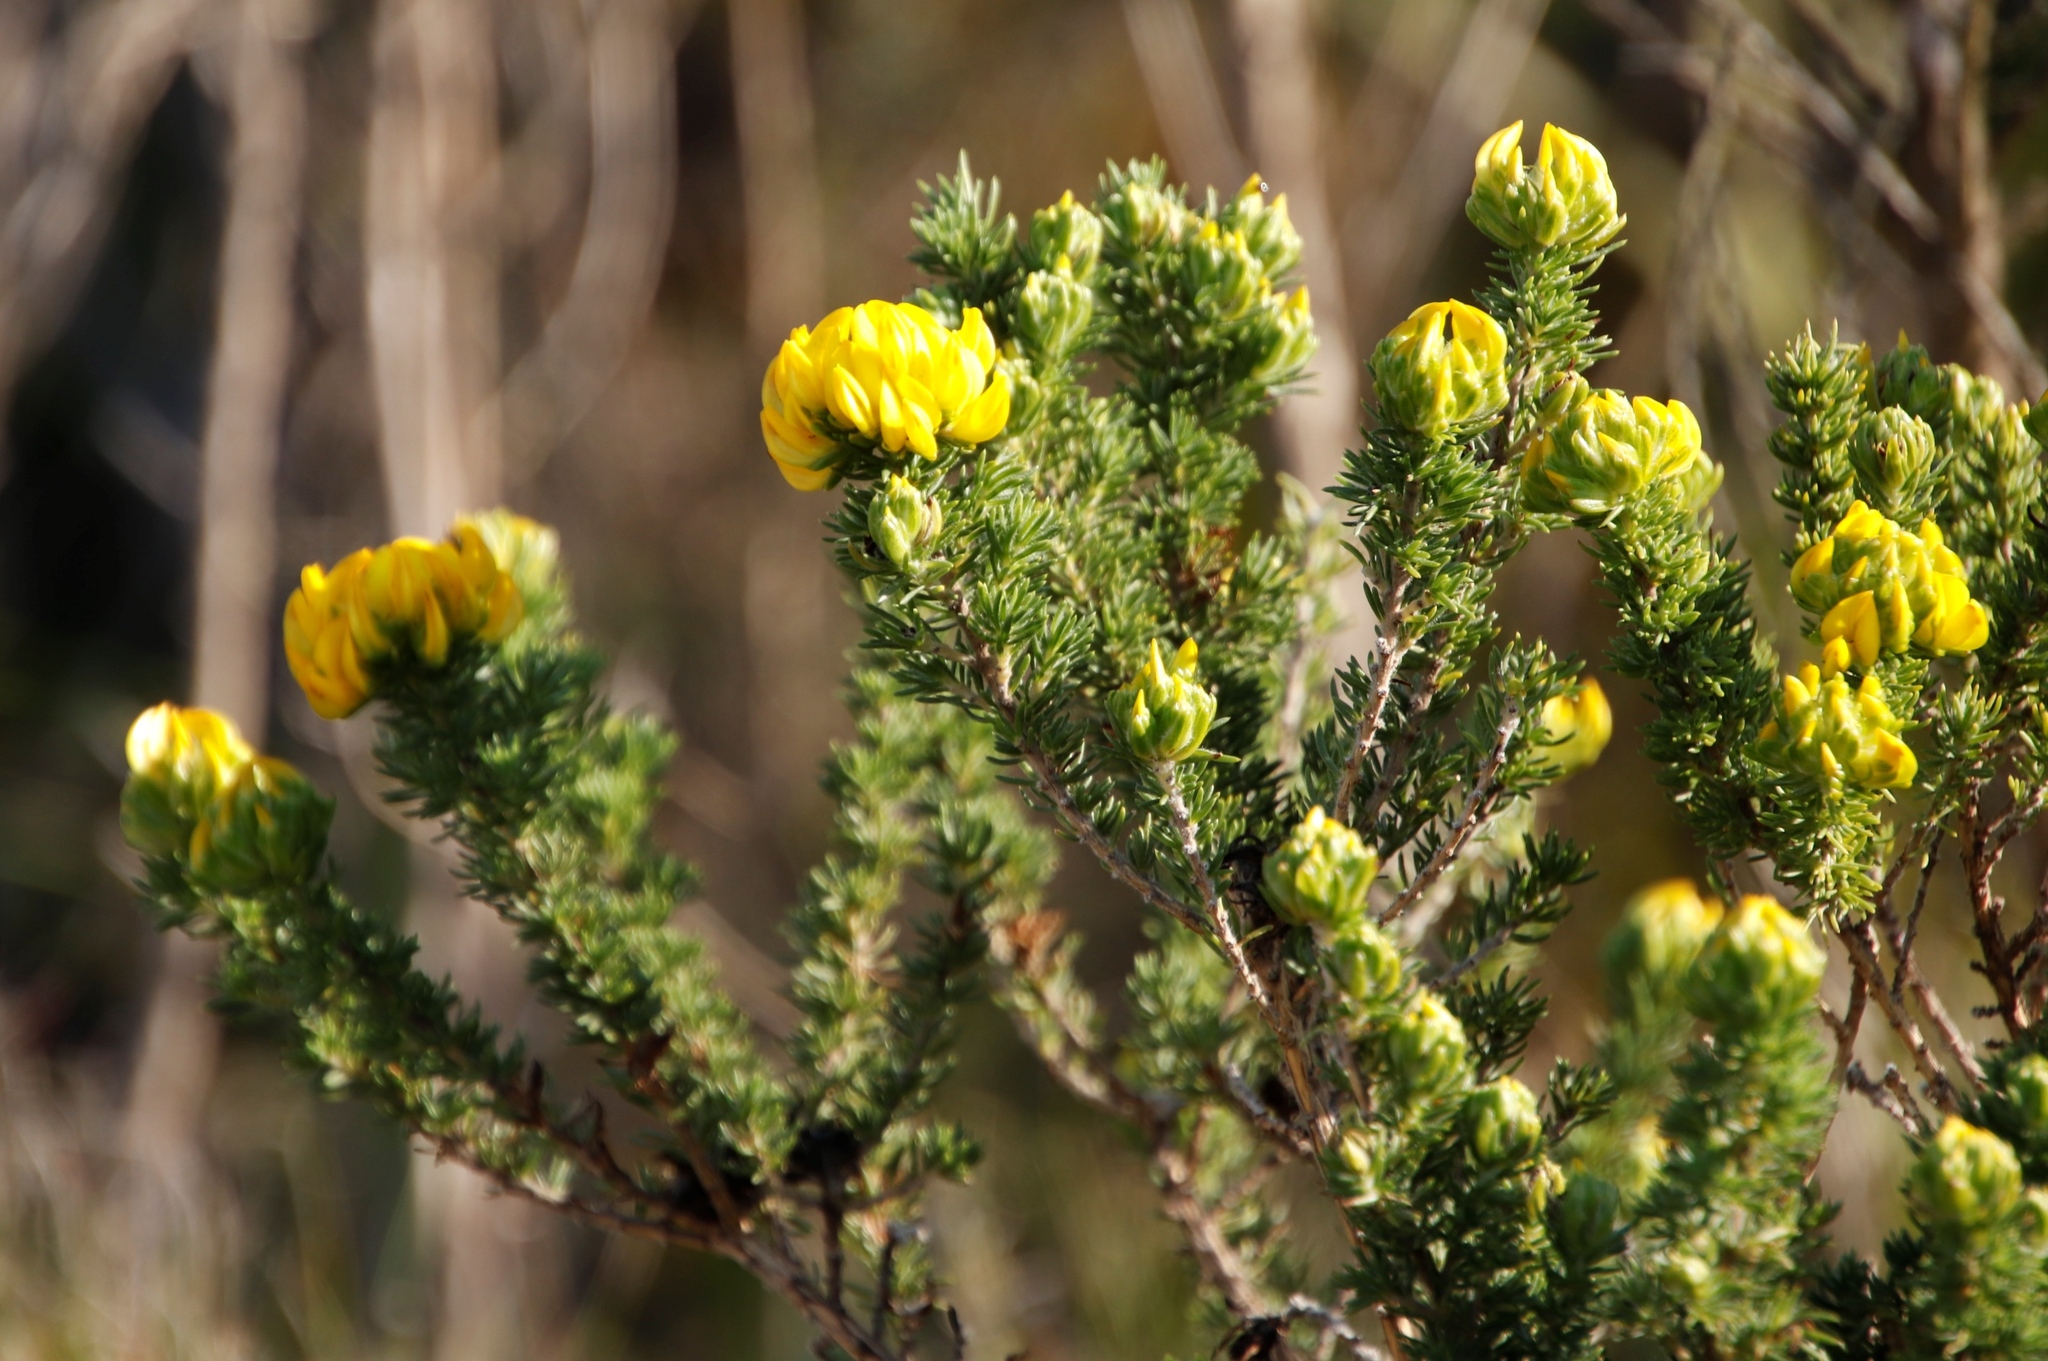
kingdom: Plantae
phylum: Tracheophyta
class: Magnoliopsida
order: Fabales
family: Fabaceae
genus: Aspalathus
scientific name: Aspalathus capitata
